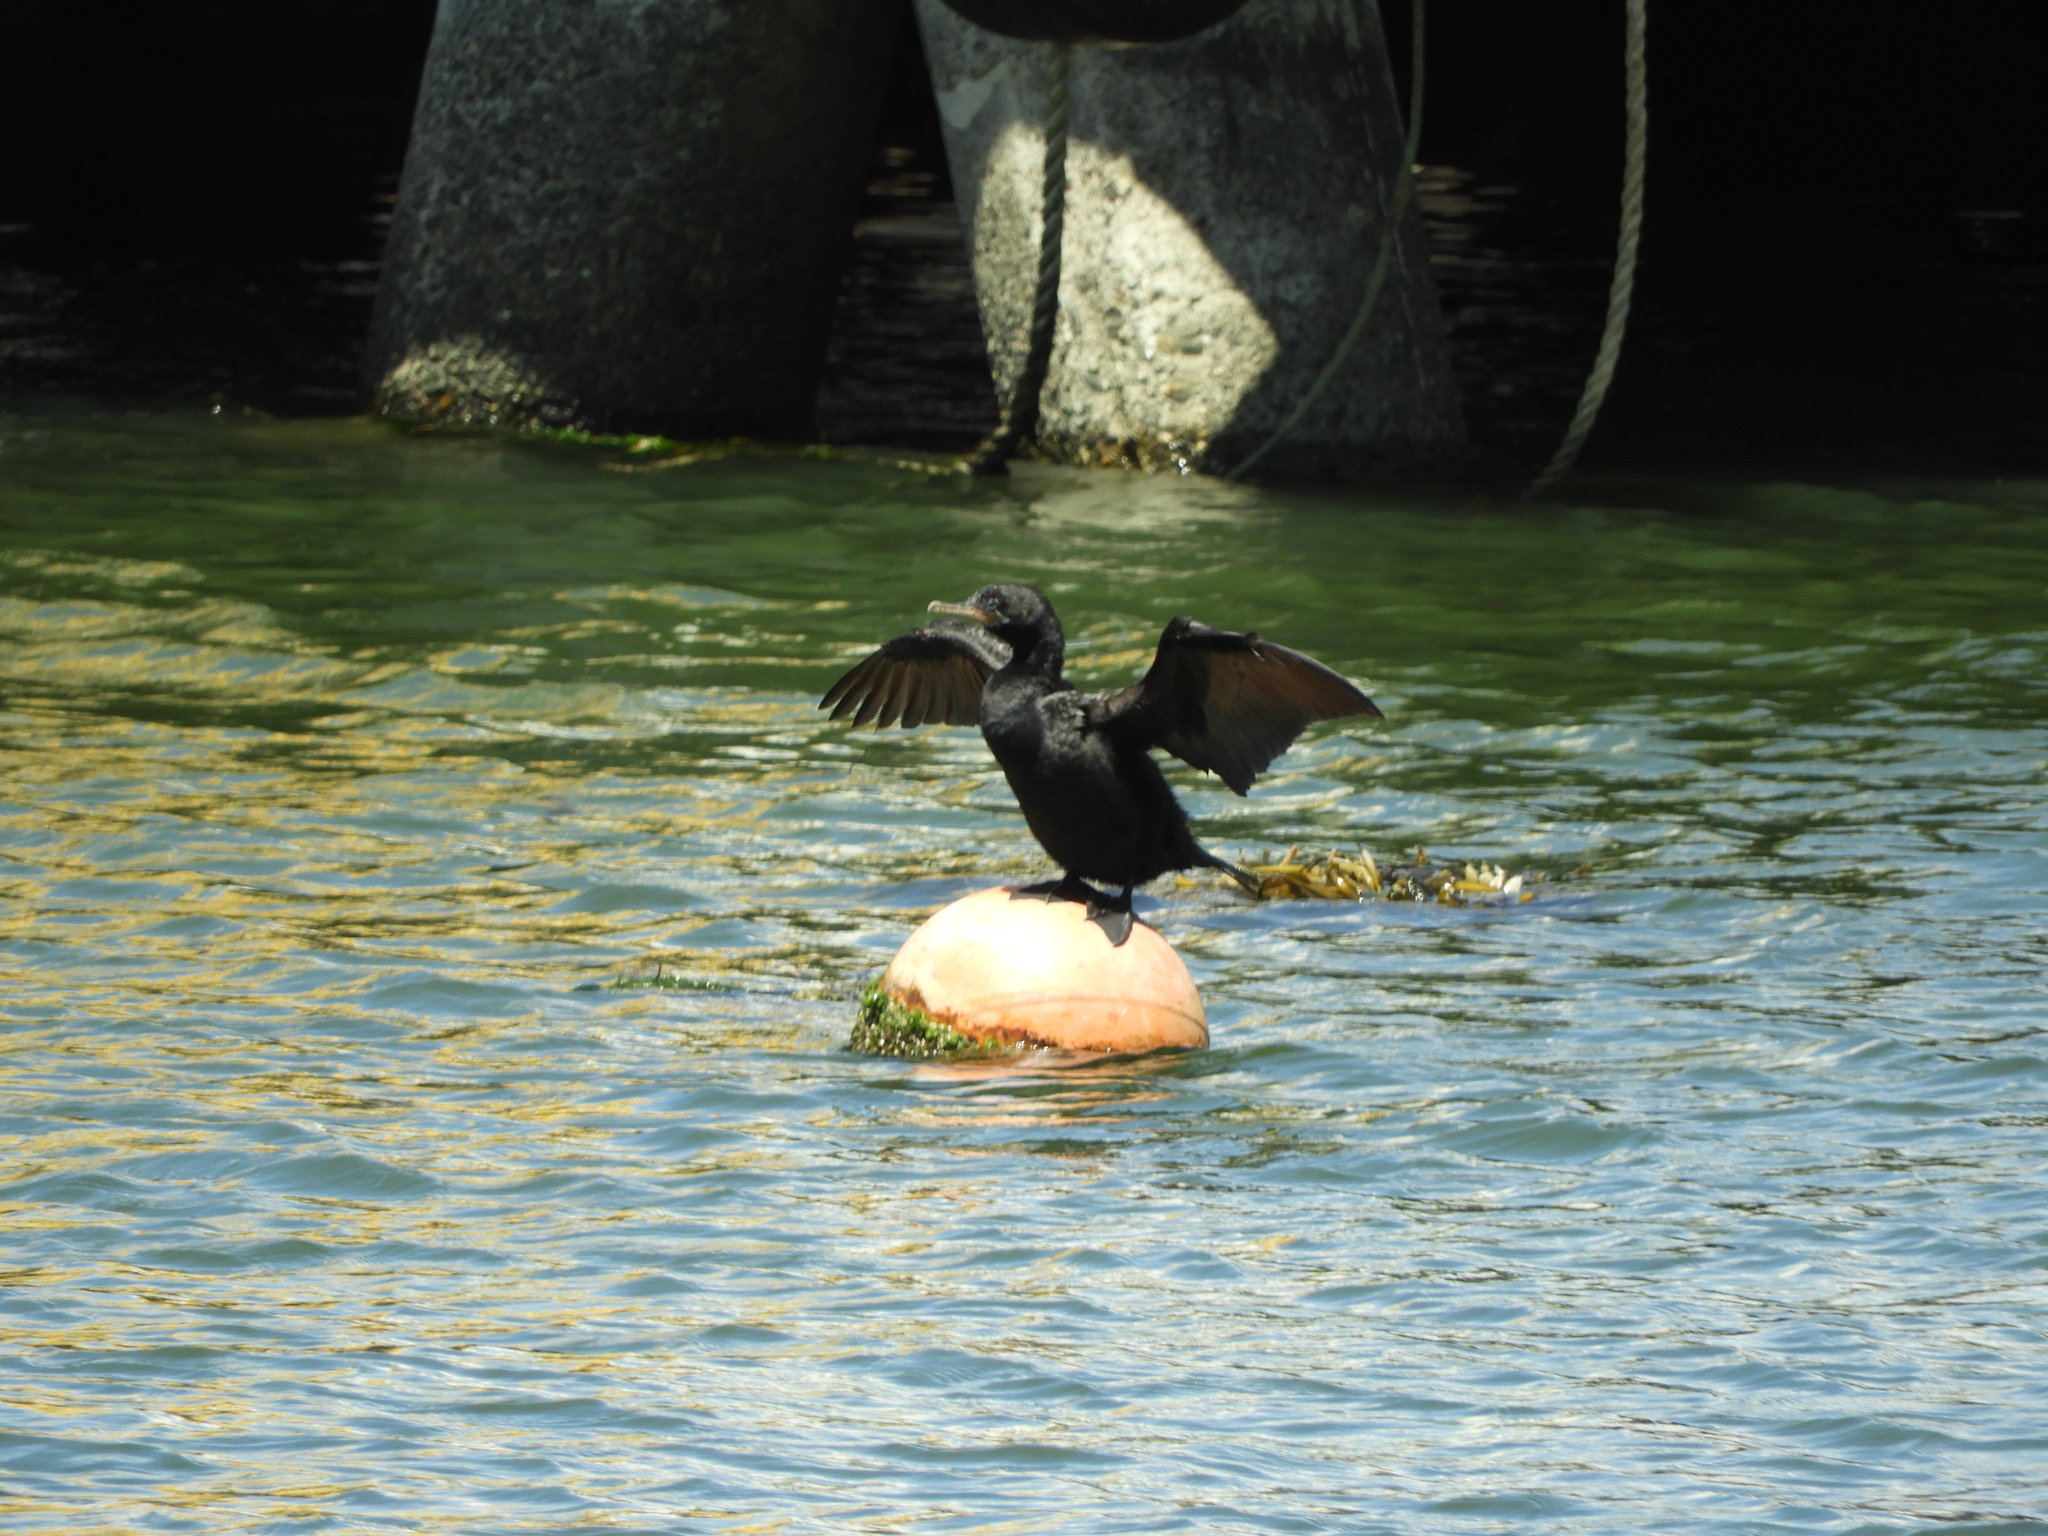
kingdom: Animalia
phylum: Chordata
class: Aves
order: Suliformes
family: Phalacrocoracidae
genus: Phalacrocorax
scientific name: Phalacrocorax brasilianus
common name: Neotropic cormorant
